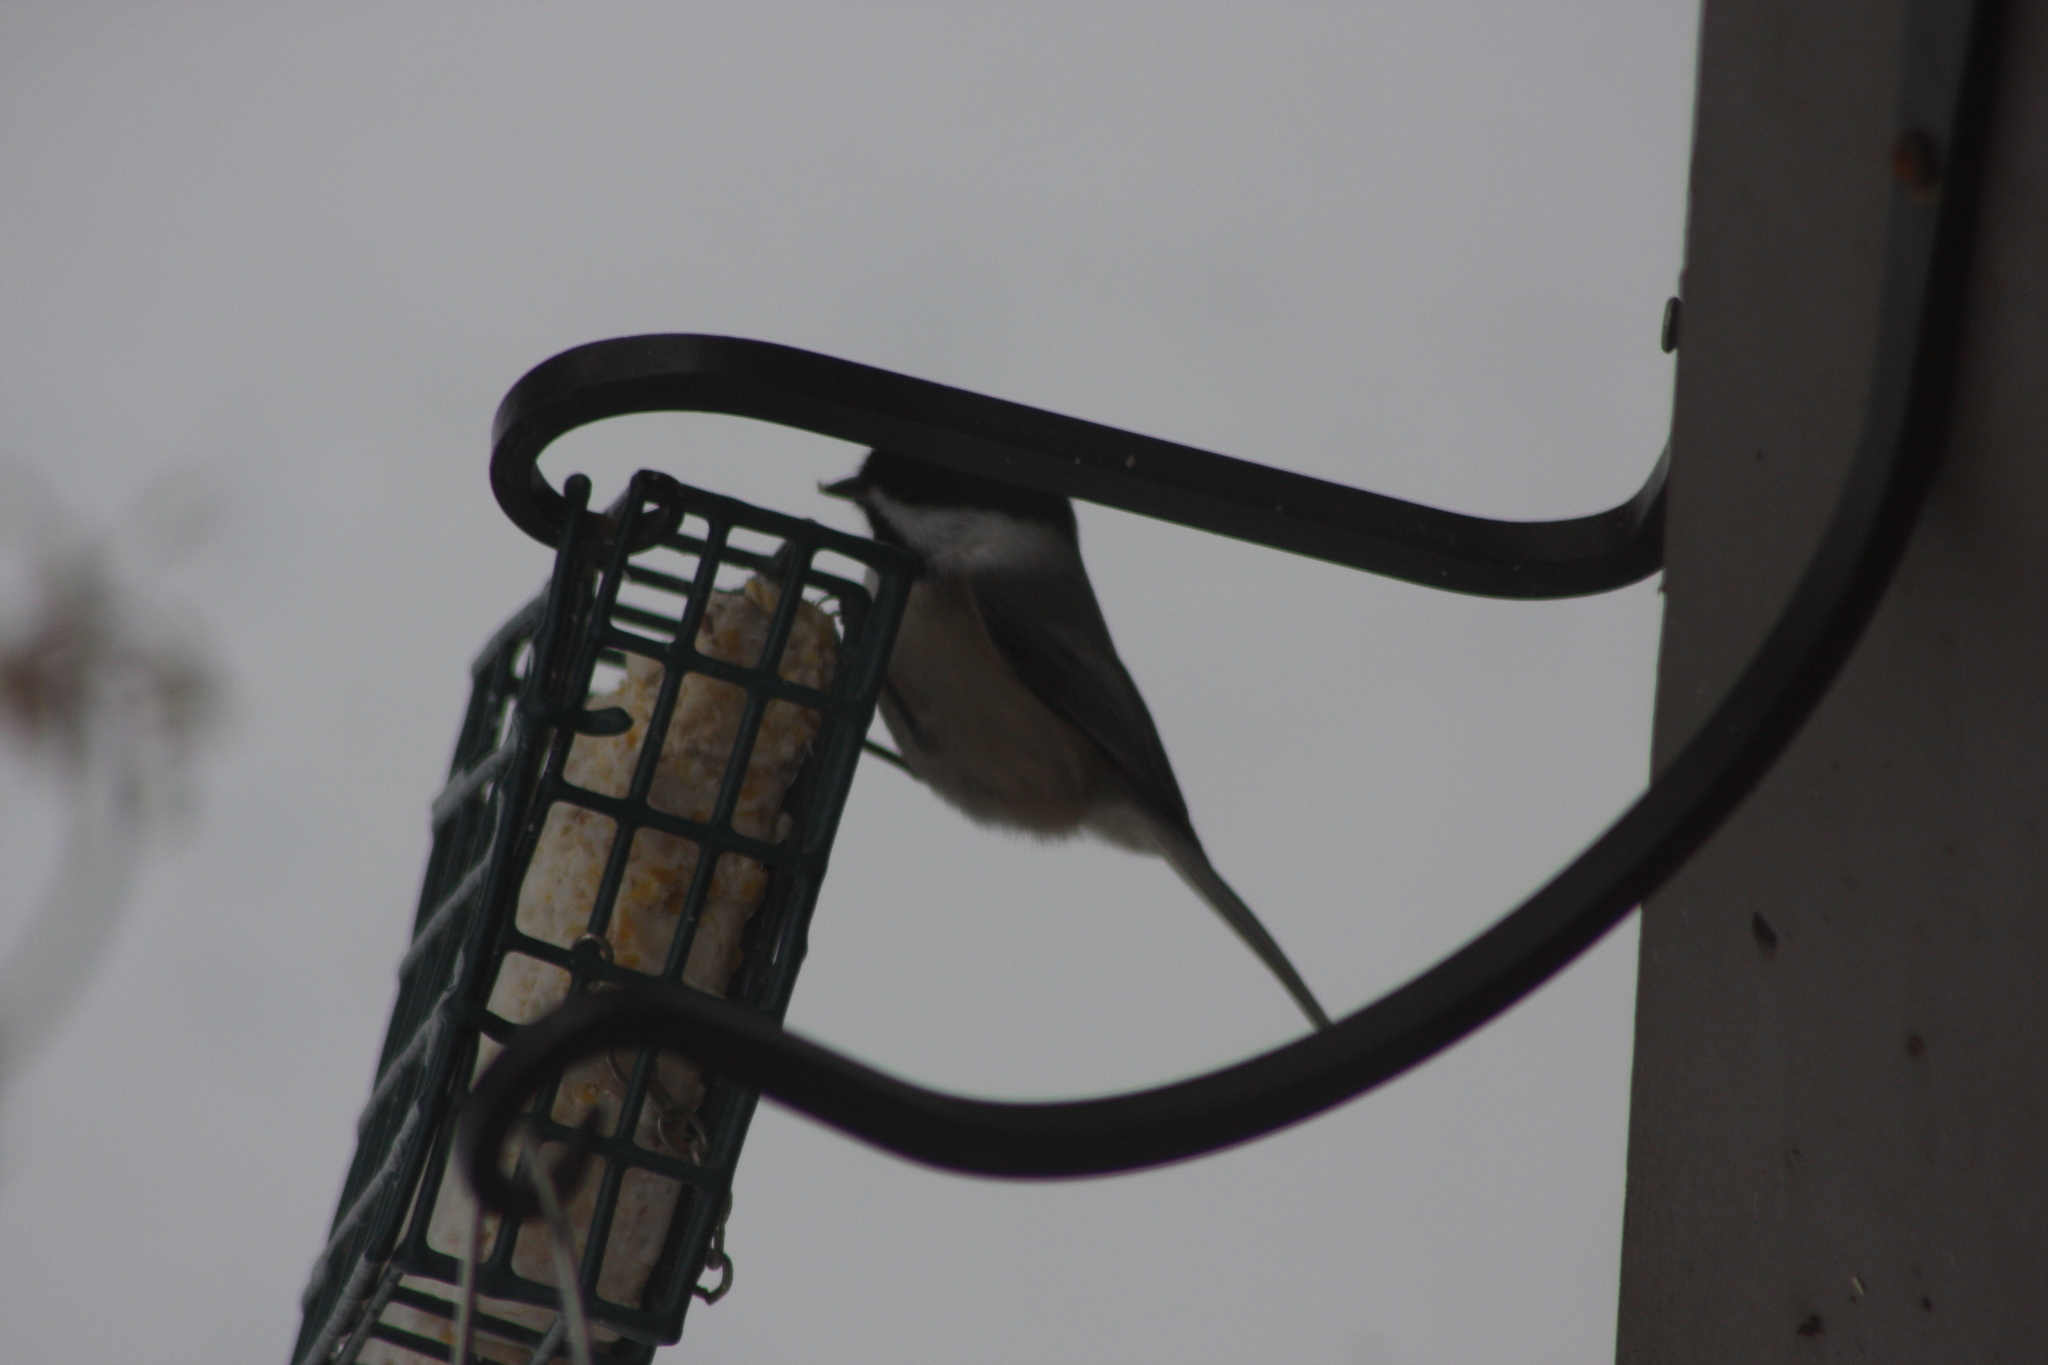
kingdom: Animalia
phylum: Chordata
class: Aves
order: Passeriformes
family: Paridae
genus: Poecile
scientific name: Poecile atricapillus
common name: Black-capped chickadee
